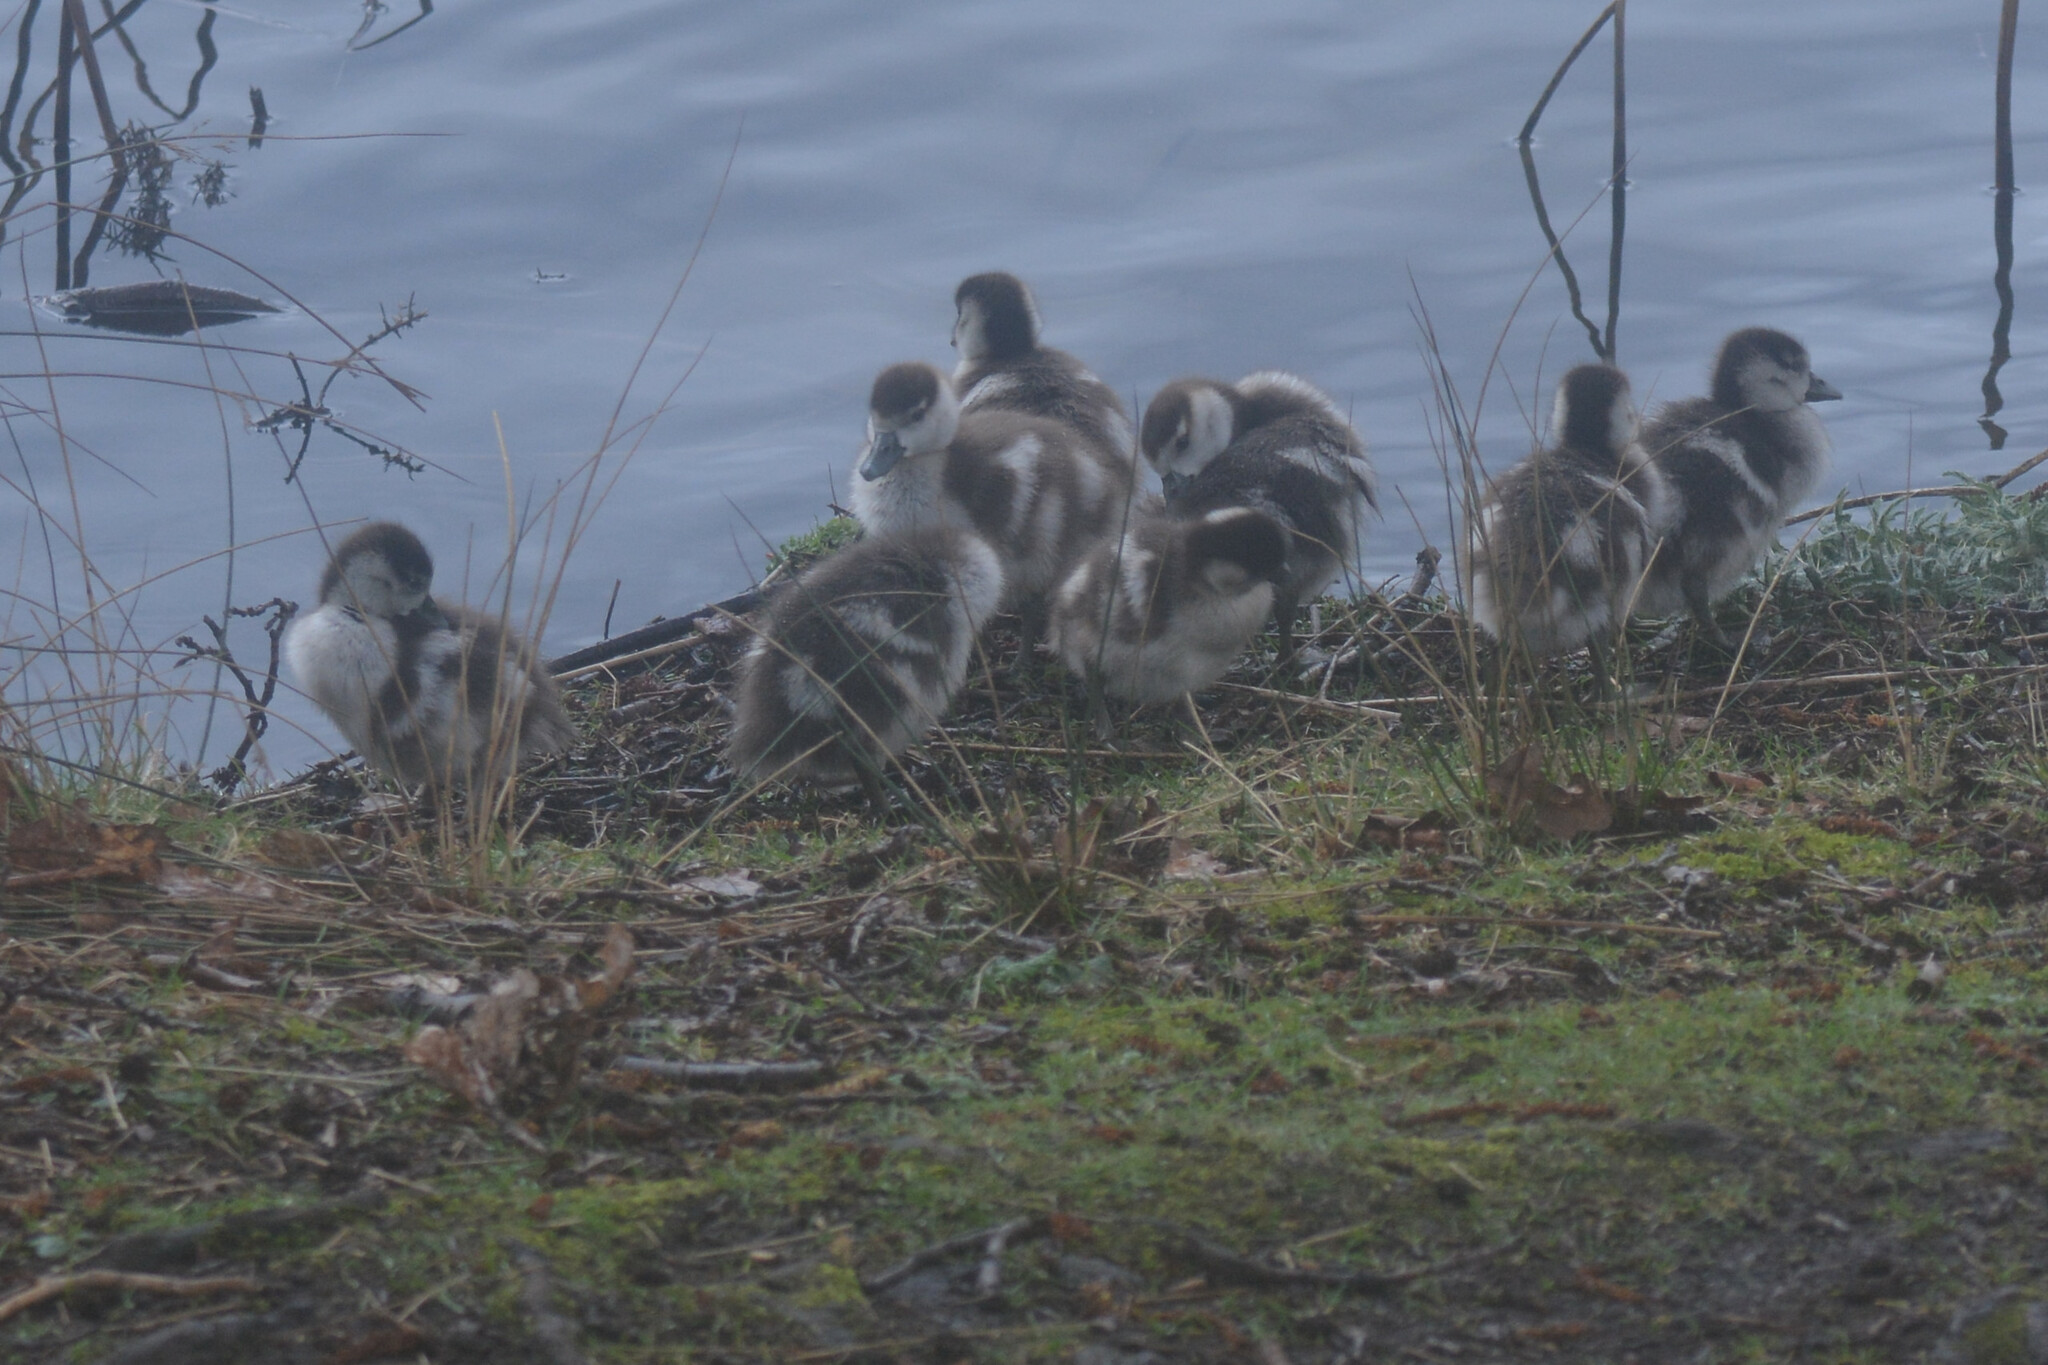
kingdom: Animalia
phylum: Chordata
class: Aves
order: Anseriformes
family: Anatidae
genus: Alopochen
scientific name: Alopochen aegyptiaca
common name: Egyptian goose
